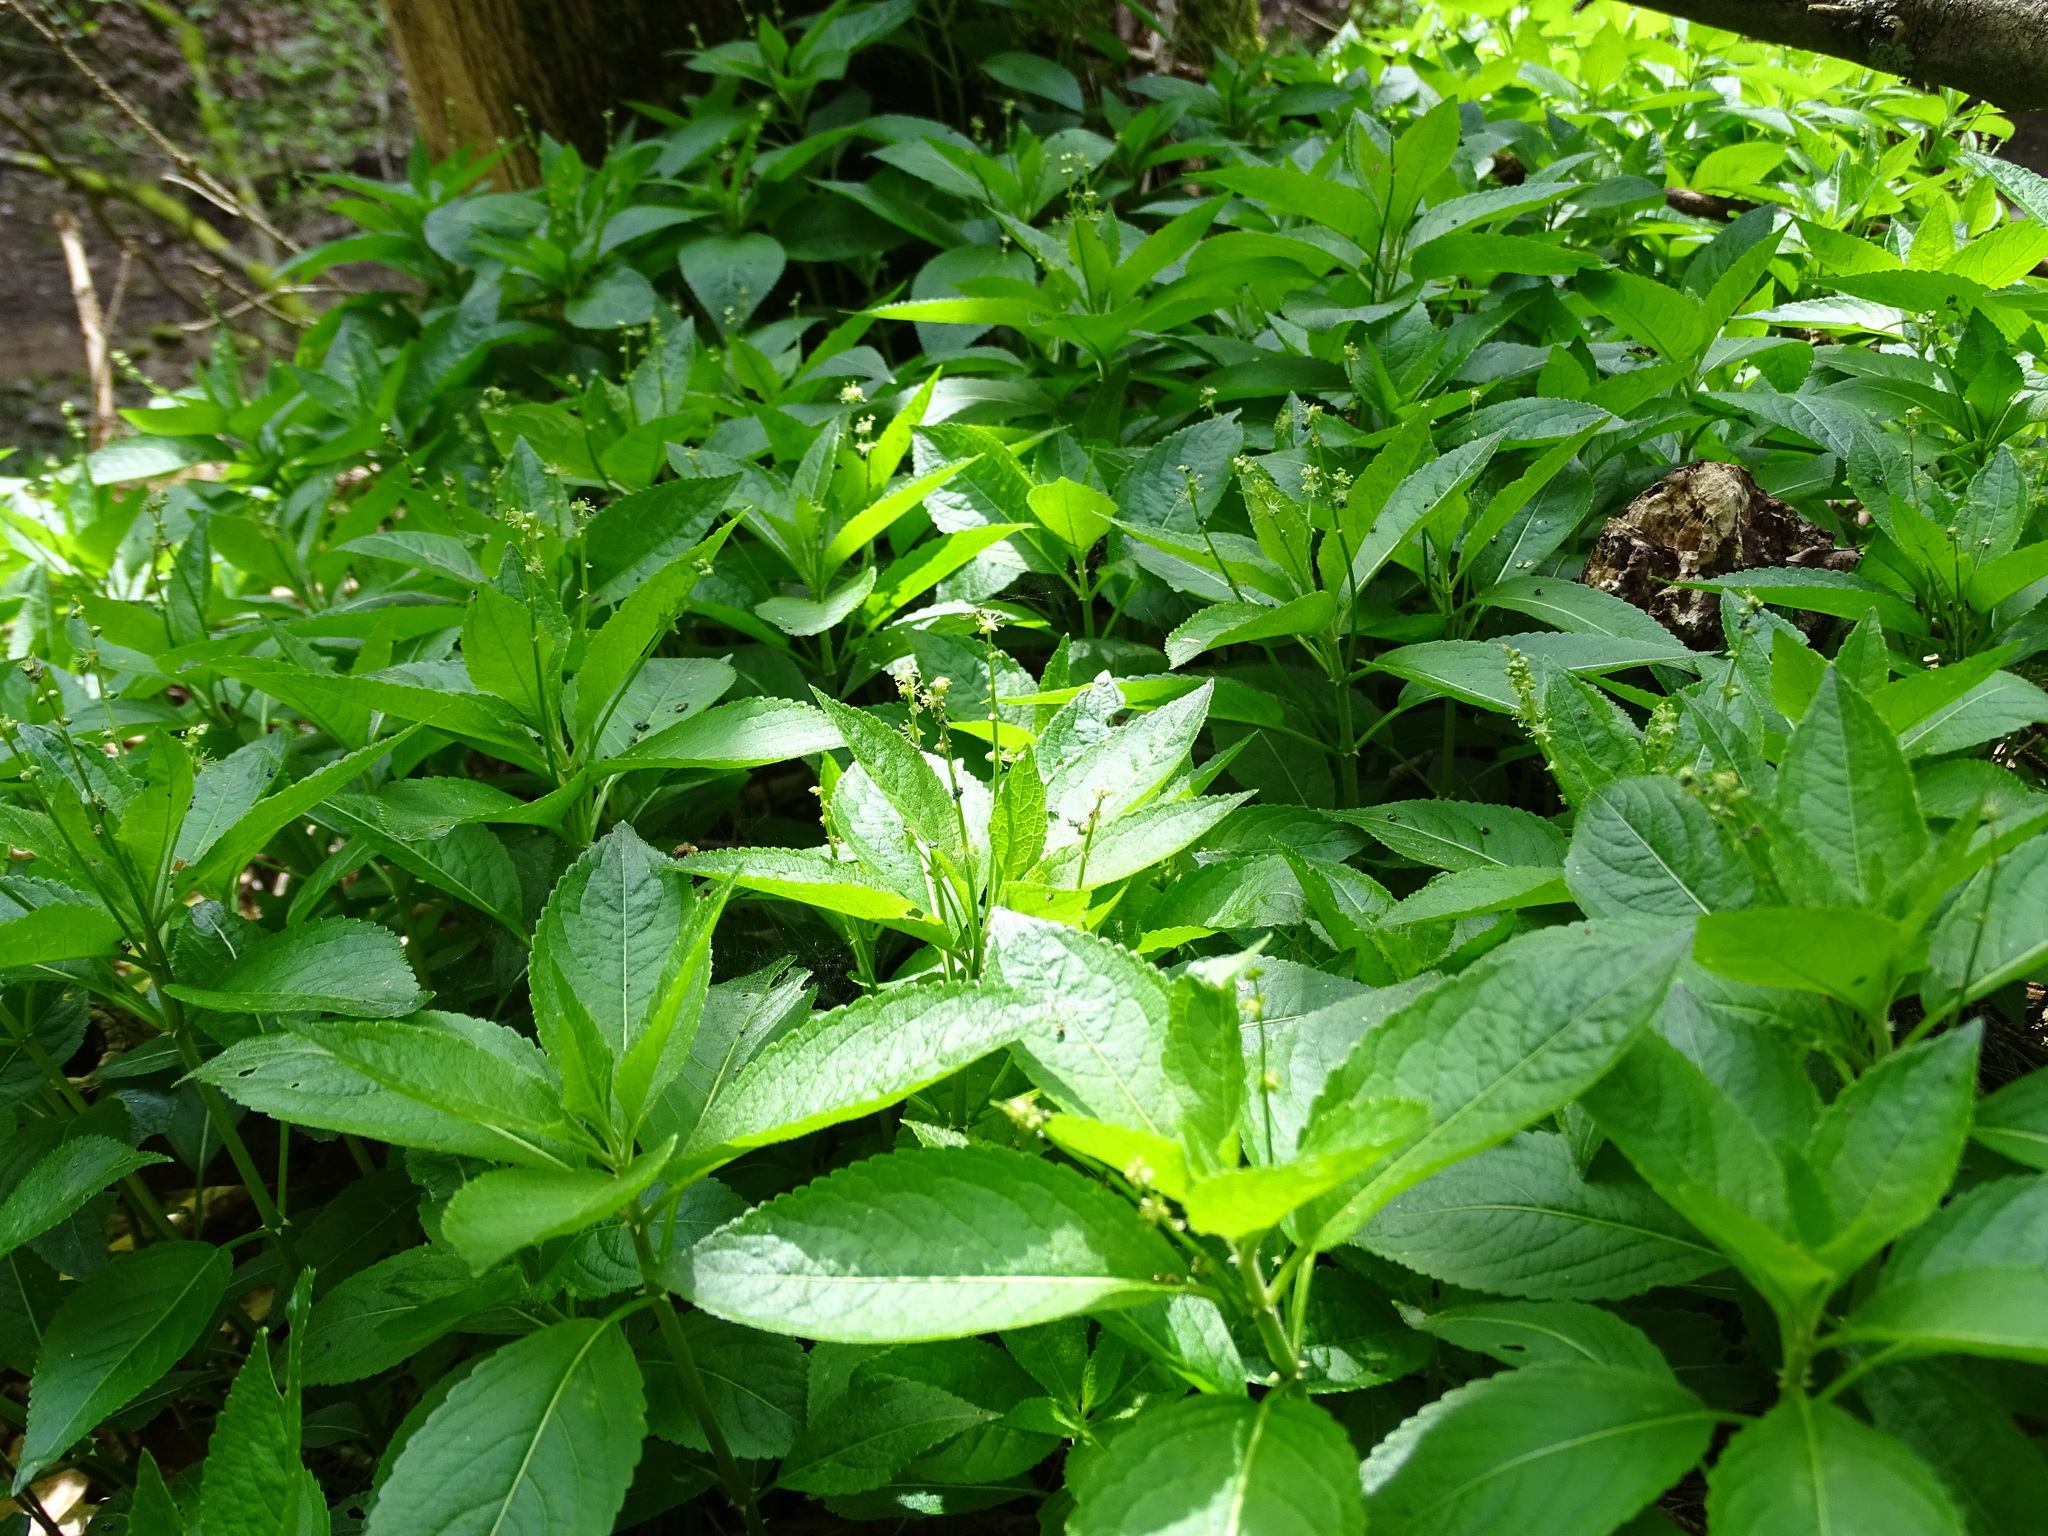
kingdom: Plantae
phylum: Tracheophyta
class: Magnoliopsida
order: Malpighiales
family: Euphorbiaceae
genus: Mercurialis
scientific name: Mercurialis perennis
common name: Dog mercury
